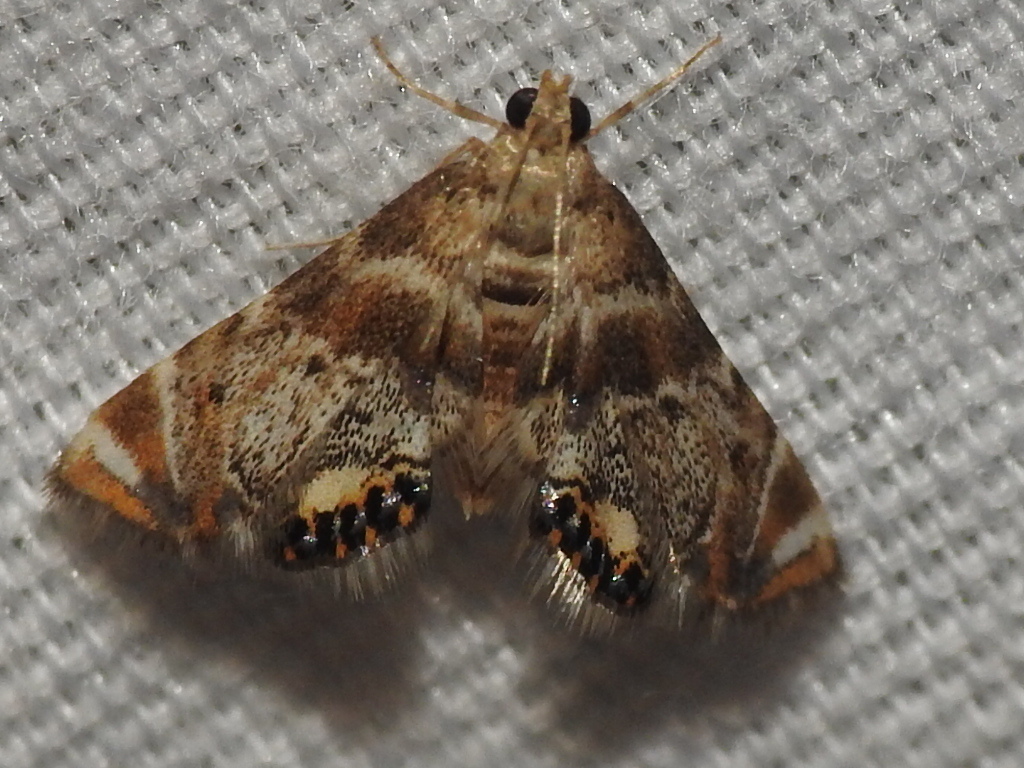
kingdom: Animalia
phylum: Arthropoda
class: Insecta
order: Lepidoptera
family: Crambidae
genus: Petrophila
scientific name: Petrophila fulicalis
